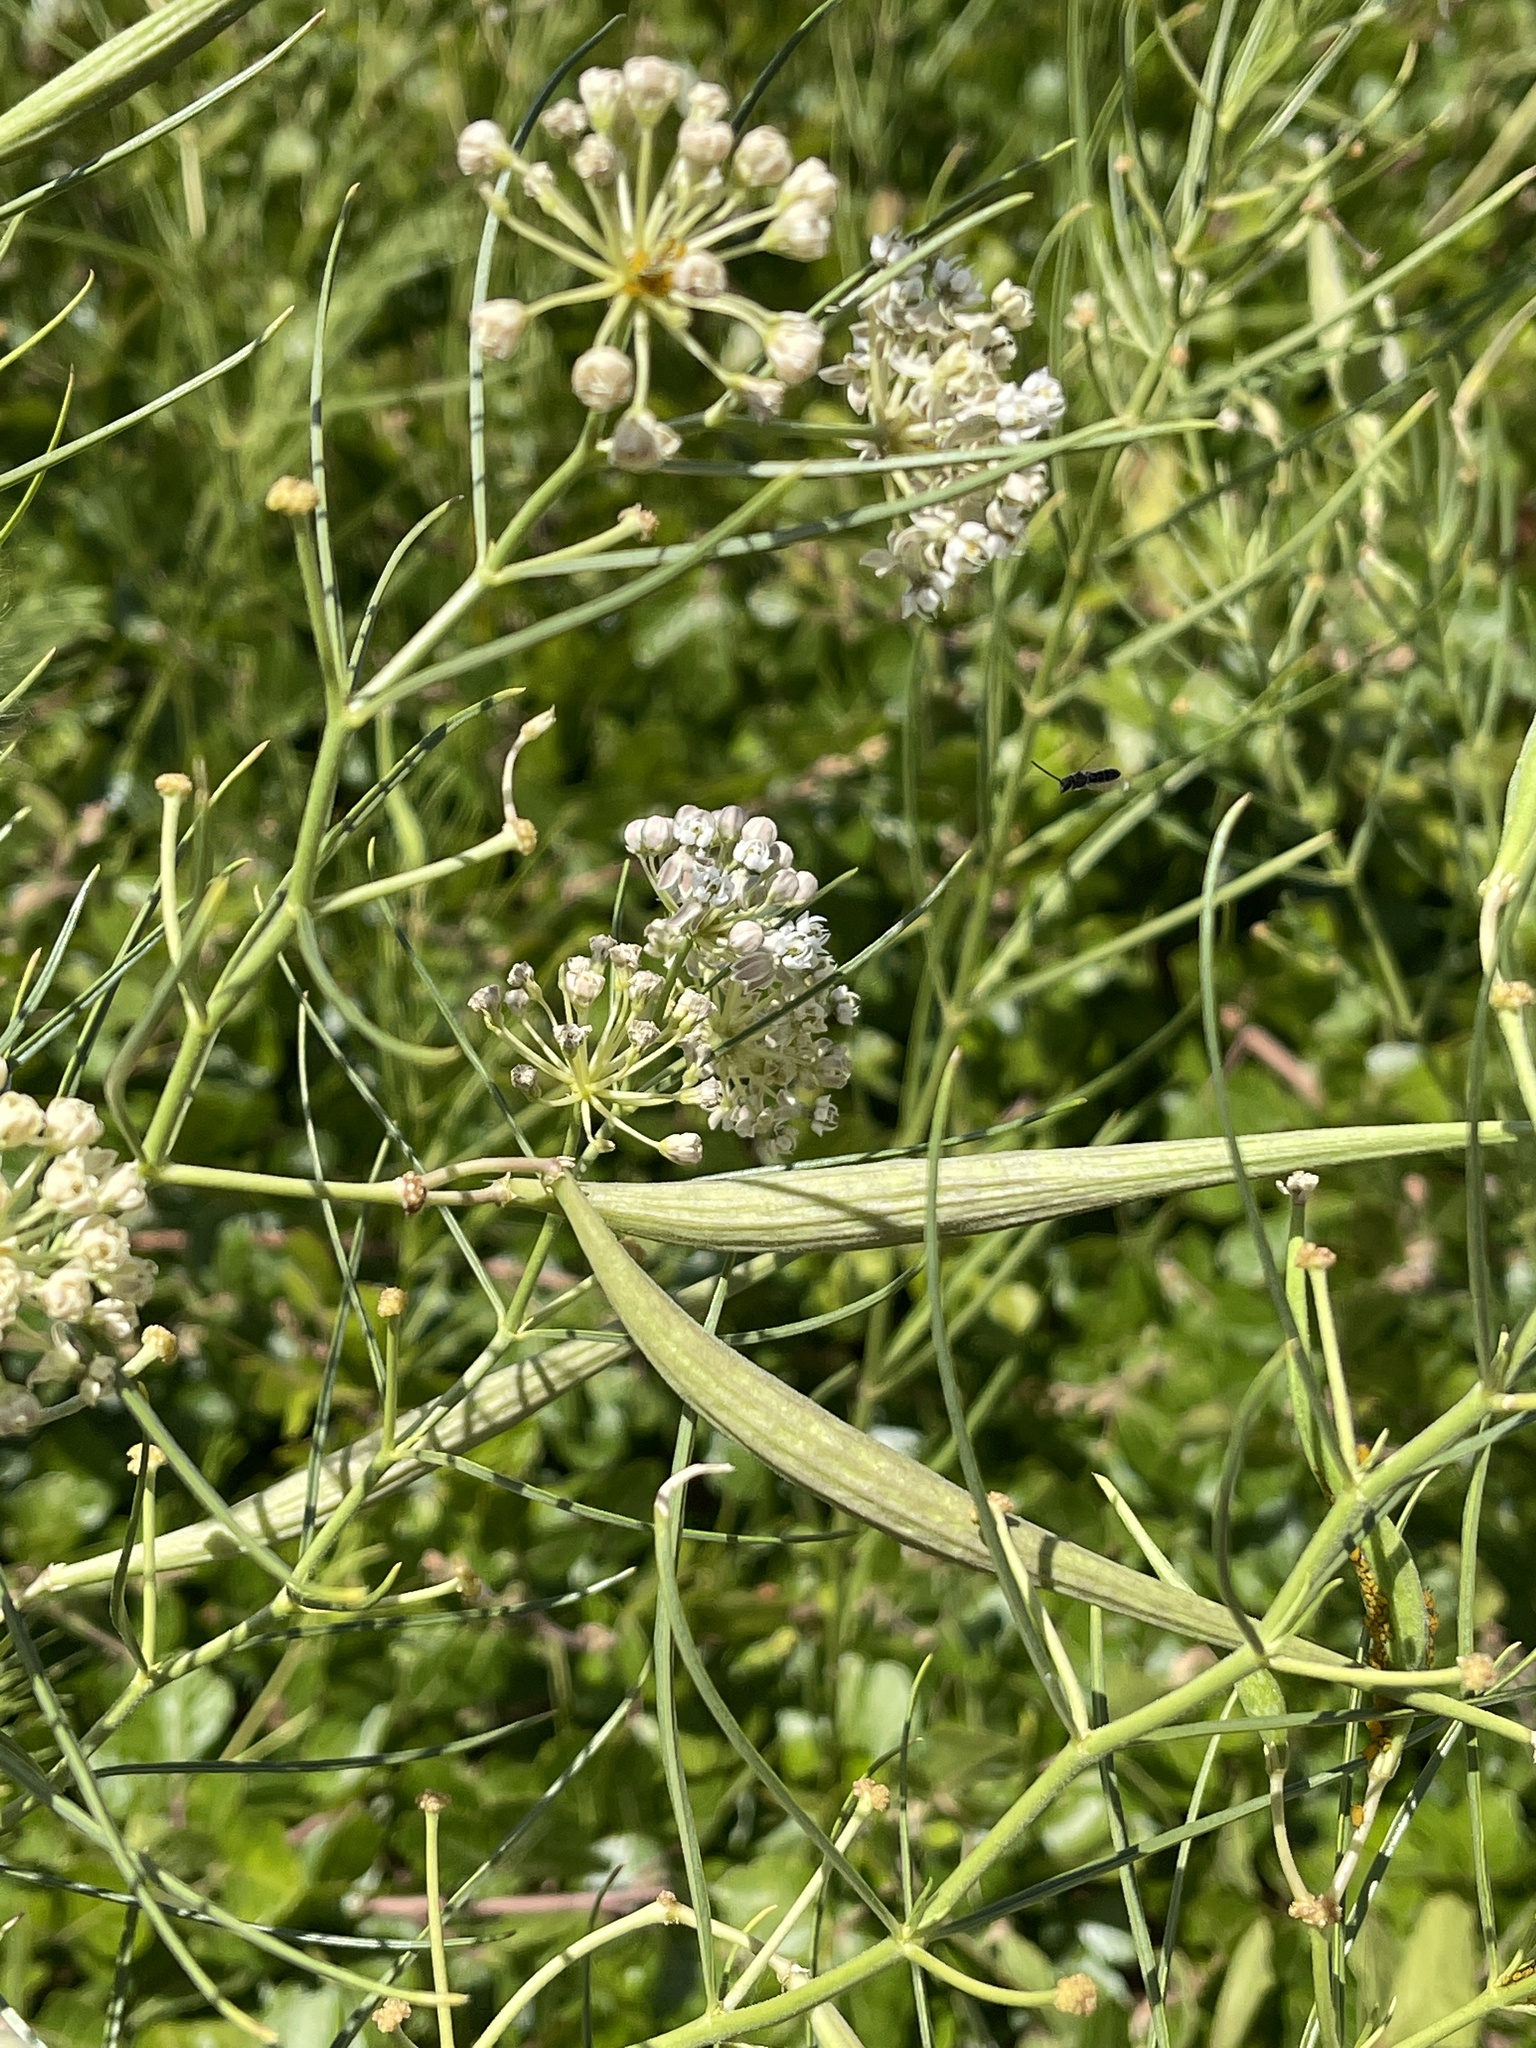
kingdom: Plantae
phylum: Tracheophyta
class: Magnoliopsida
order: Gentianales
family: Apocynaceae
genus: Asclepias
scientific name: Asclepias subverticillata
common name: Horsetail milkweed
